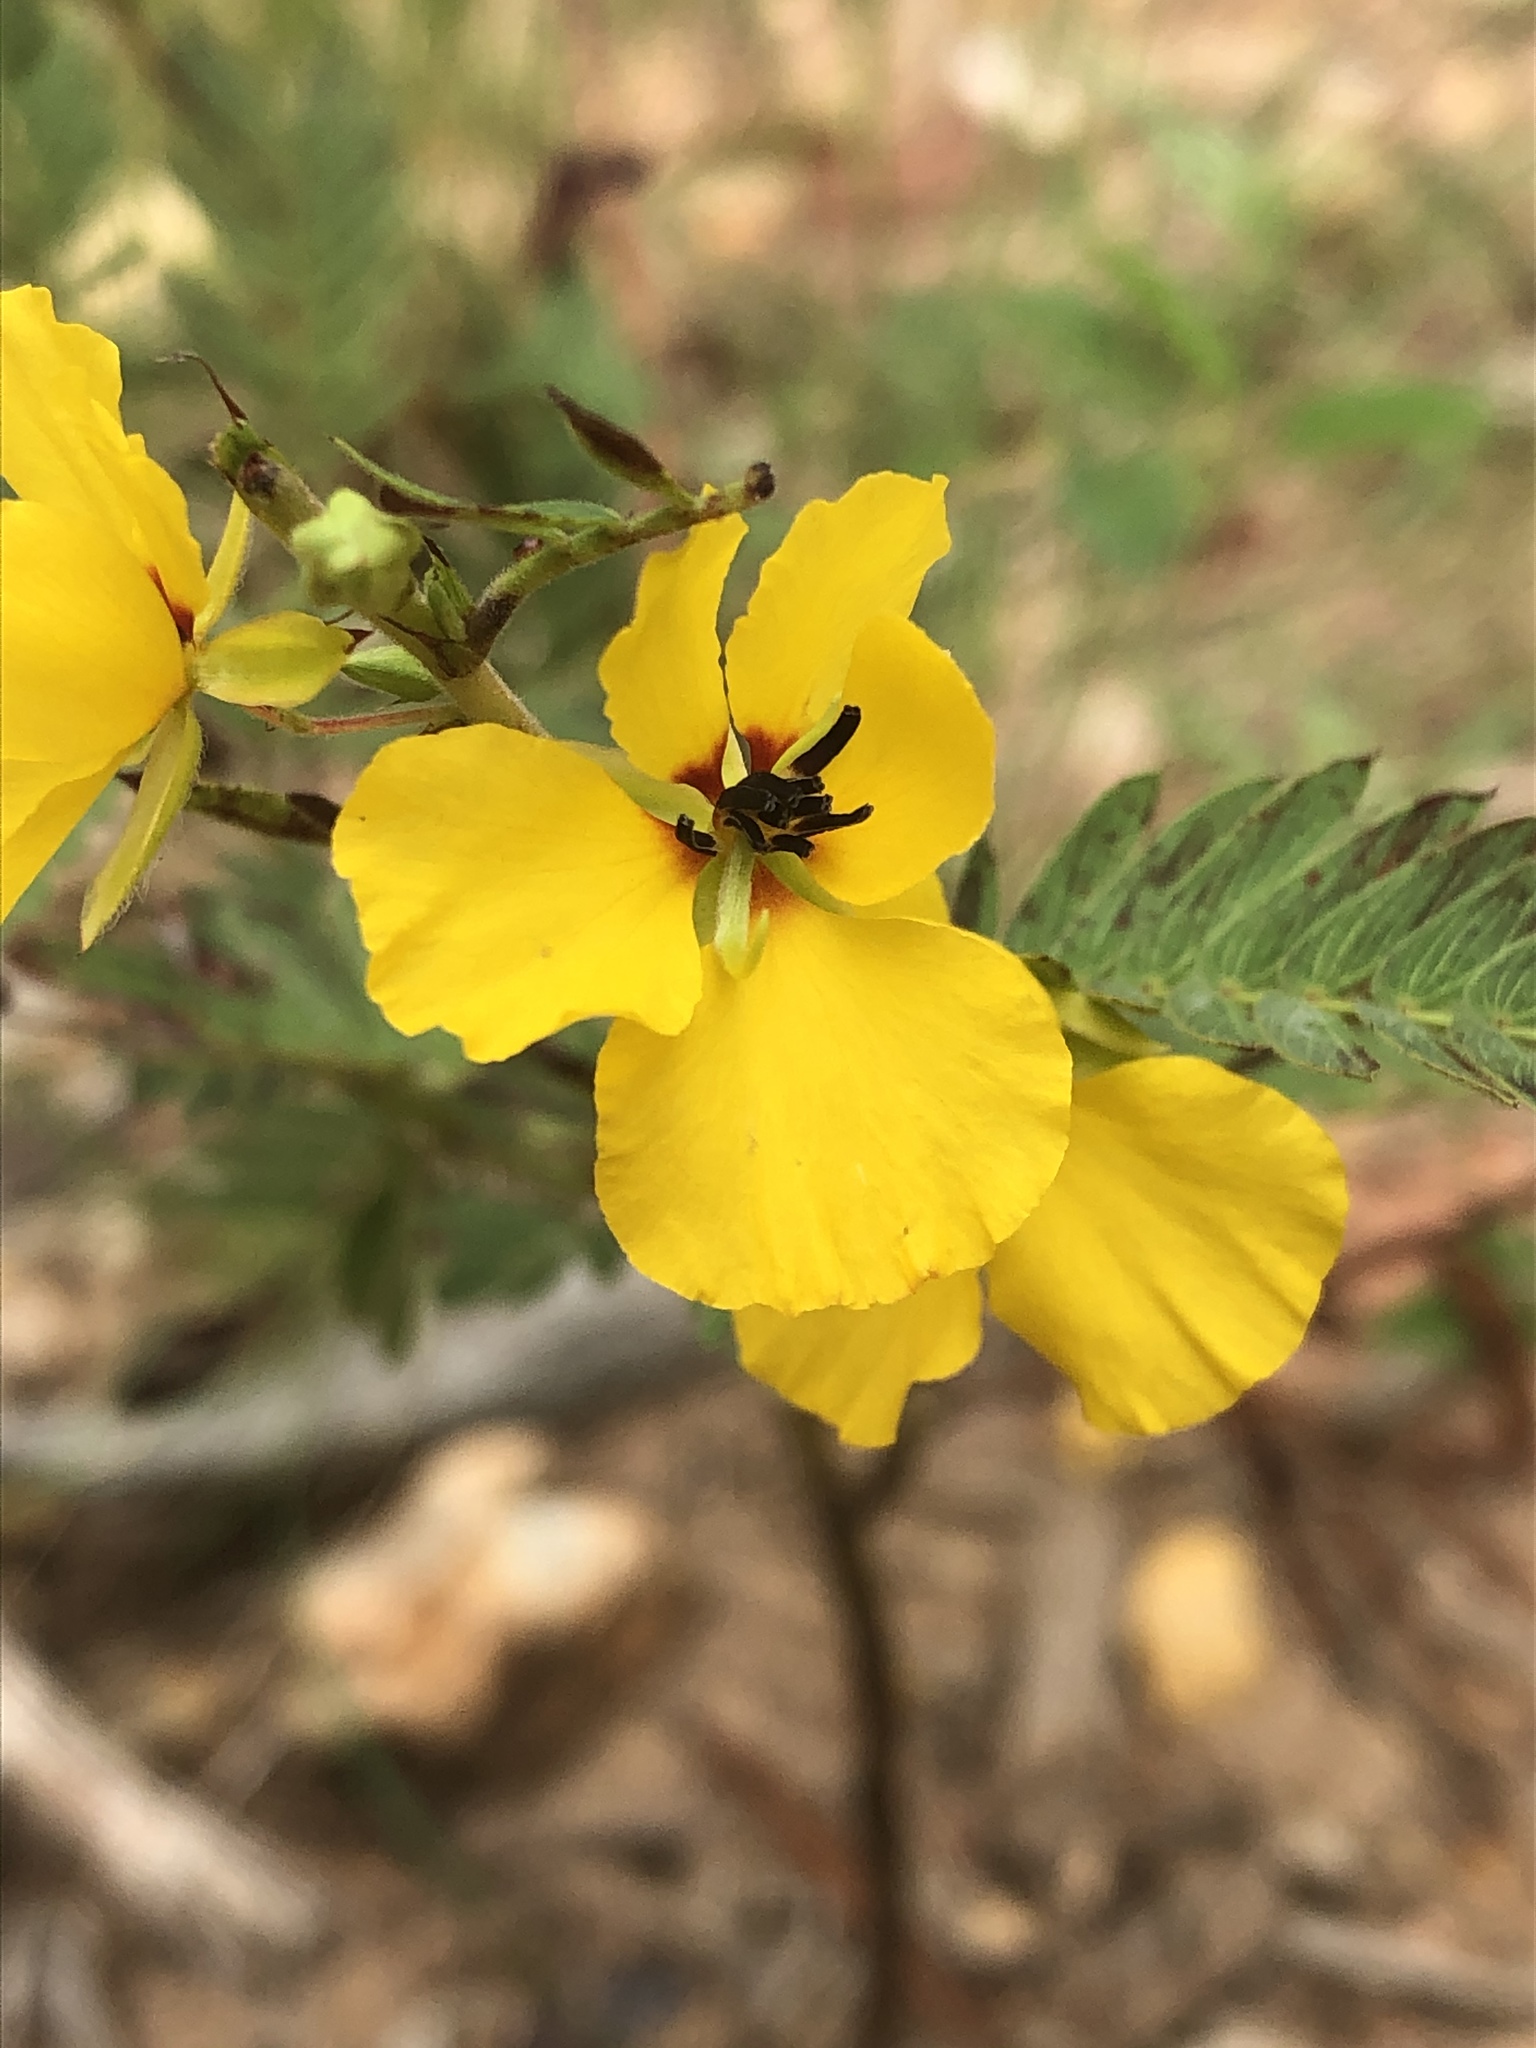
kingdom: Plantae
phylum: Tracheophyta
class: Magnoliopsida
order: Fabales
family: Fabaceae
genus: Chamaecrista
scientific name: Chamaecrista fasciculata
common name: Golden cassia
